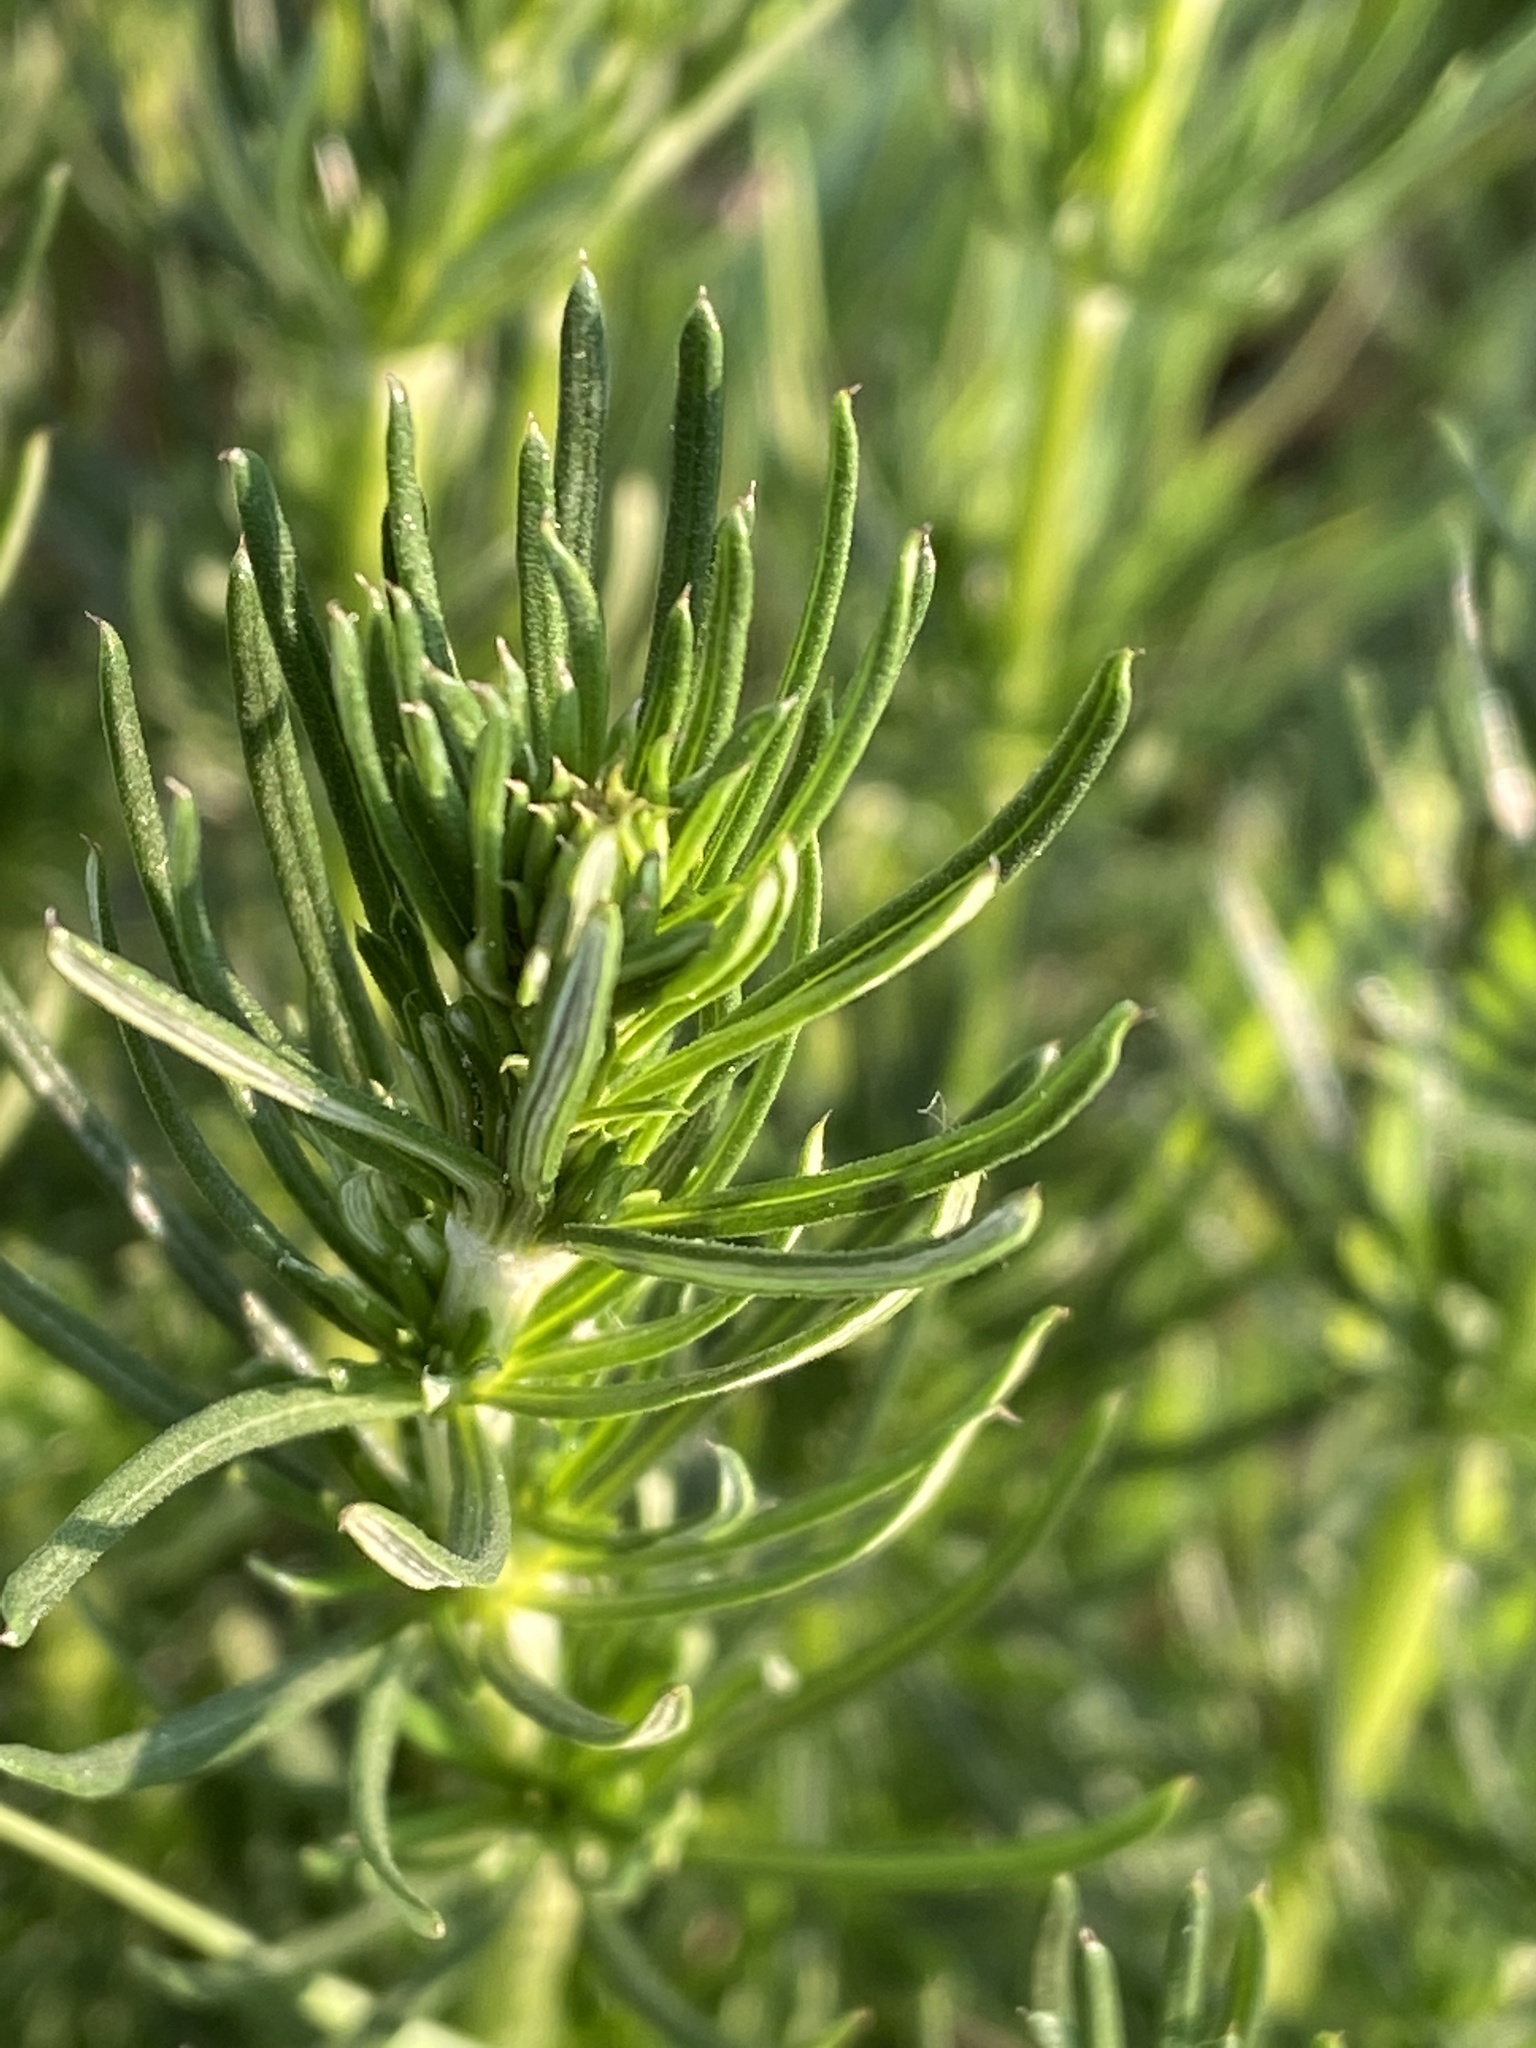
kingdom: Plantae
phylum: Tracheophyta
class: Magnoliopsida
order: Gentianales
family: Rubiaceae
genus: Galium
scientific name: Galium verum
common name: Lady's bedstraw
